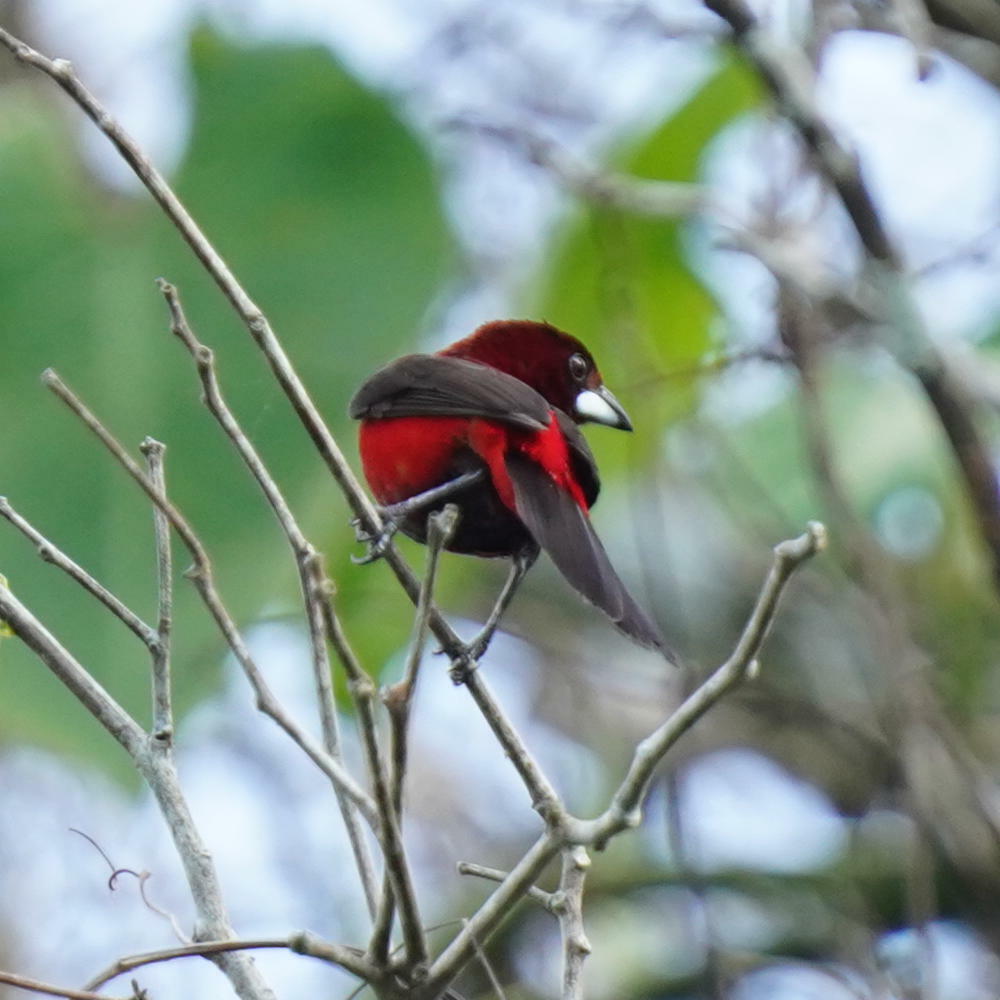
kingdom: Animalia
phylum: Chordata
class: Aves
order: Passeriformes
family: Thraupidae
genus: Ramphocelus
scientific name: Ramphocelus dimidiatus
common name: Crimson-backed tanager
